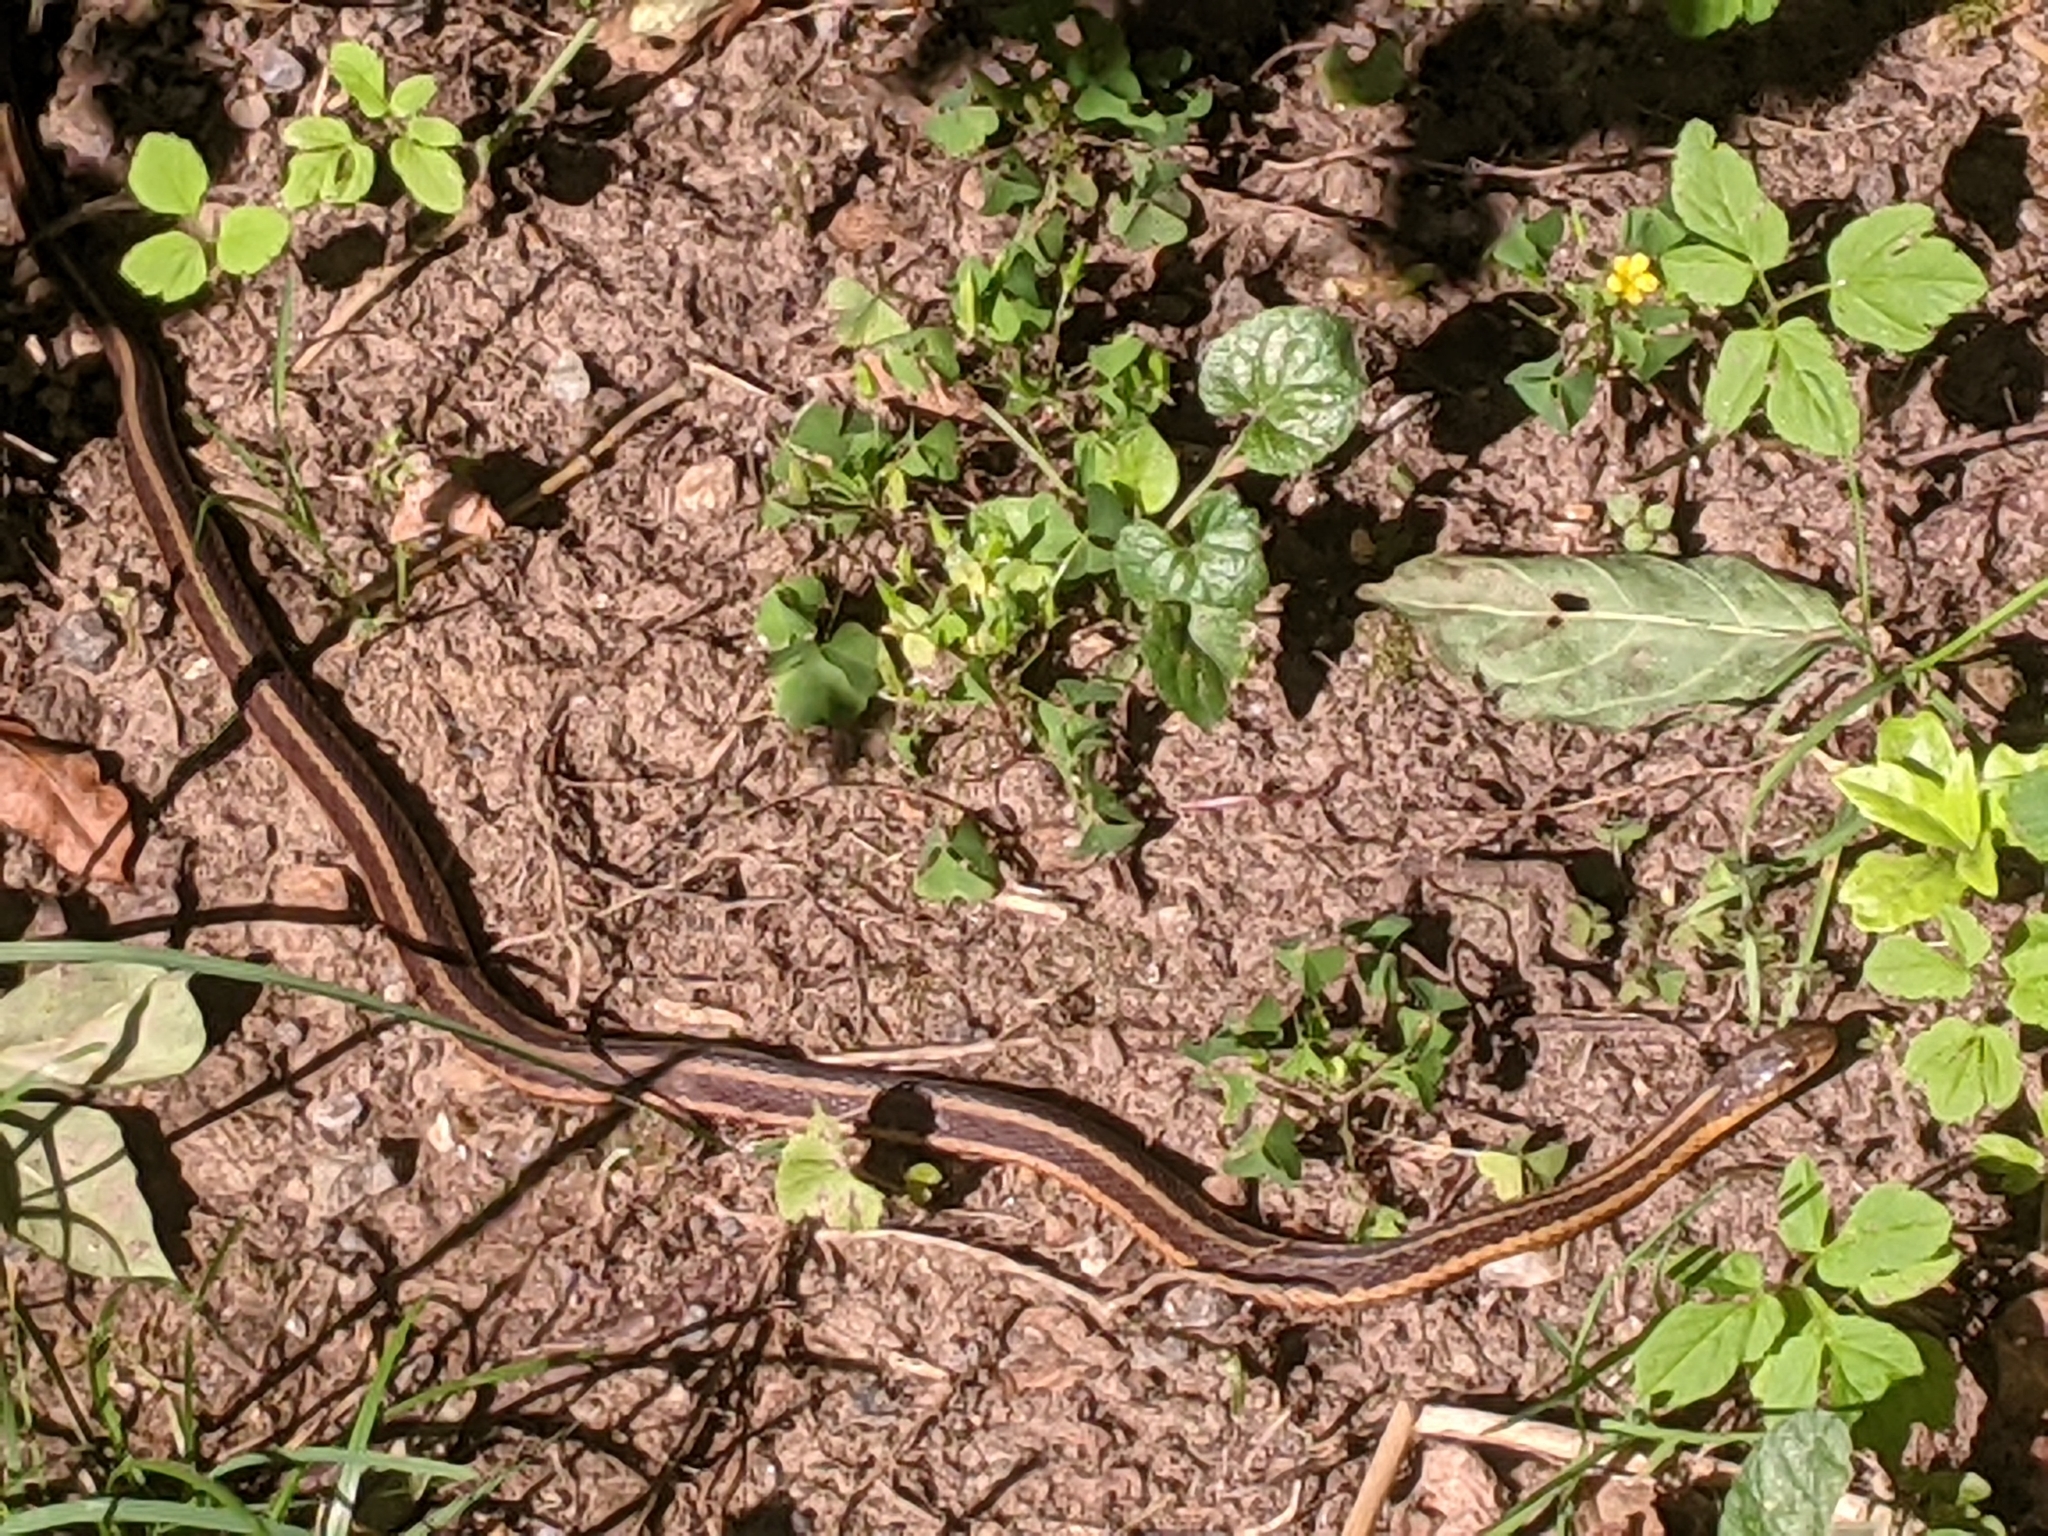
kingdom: Animalia
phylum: Chordata
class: Squamata
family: Colubridae
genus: Thamnophis
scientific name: Thamnophis sirtalis
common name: Common garter snake
